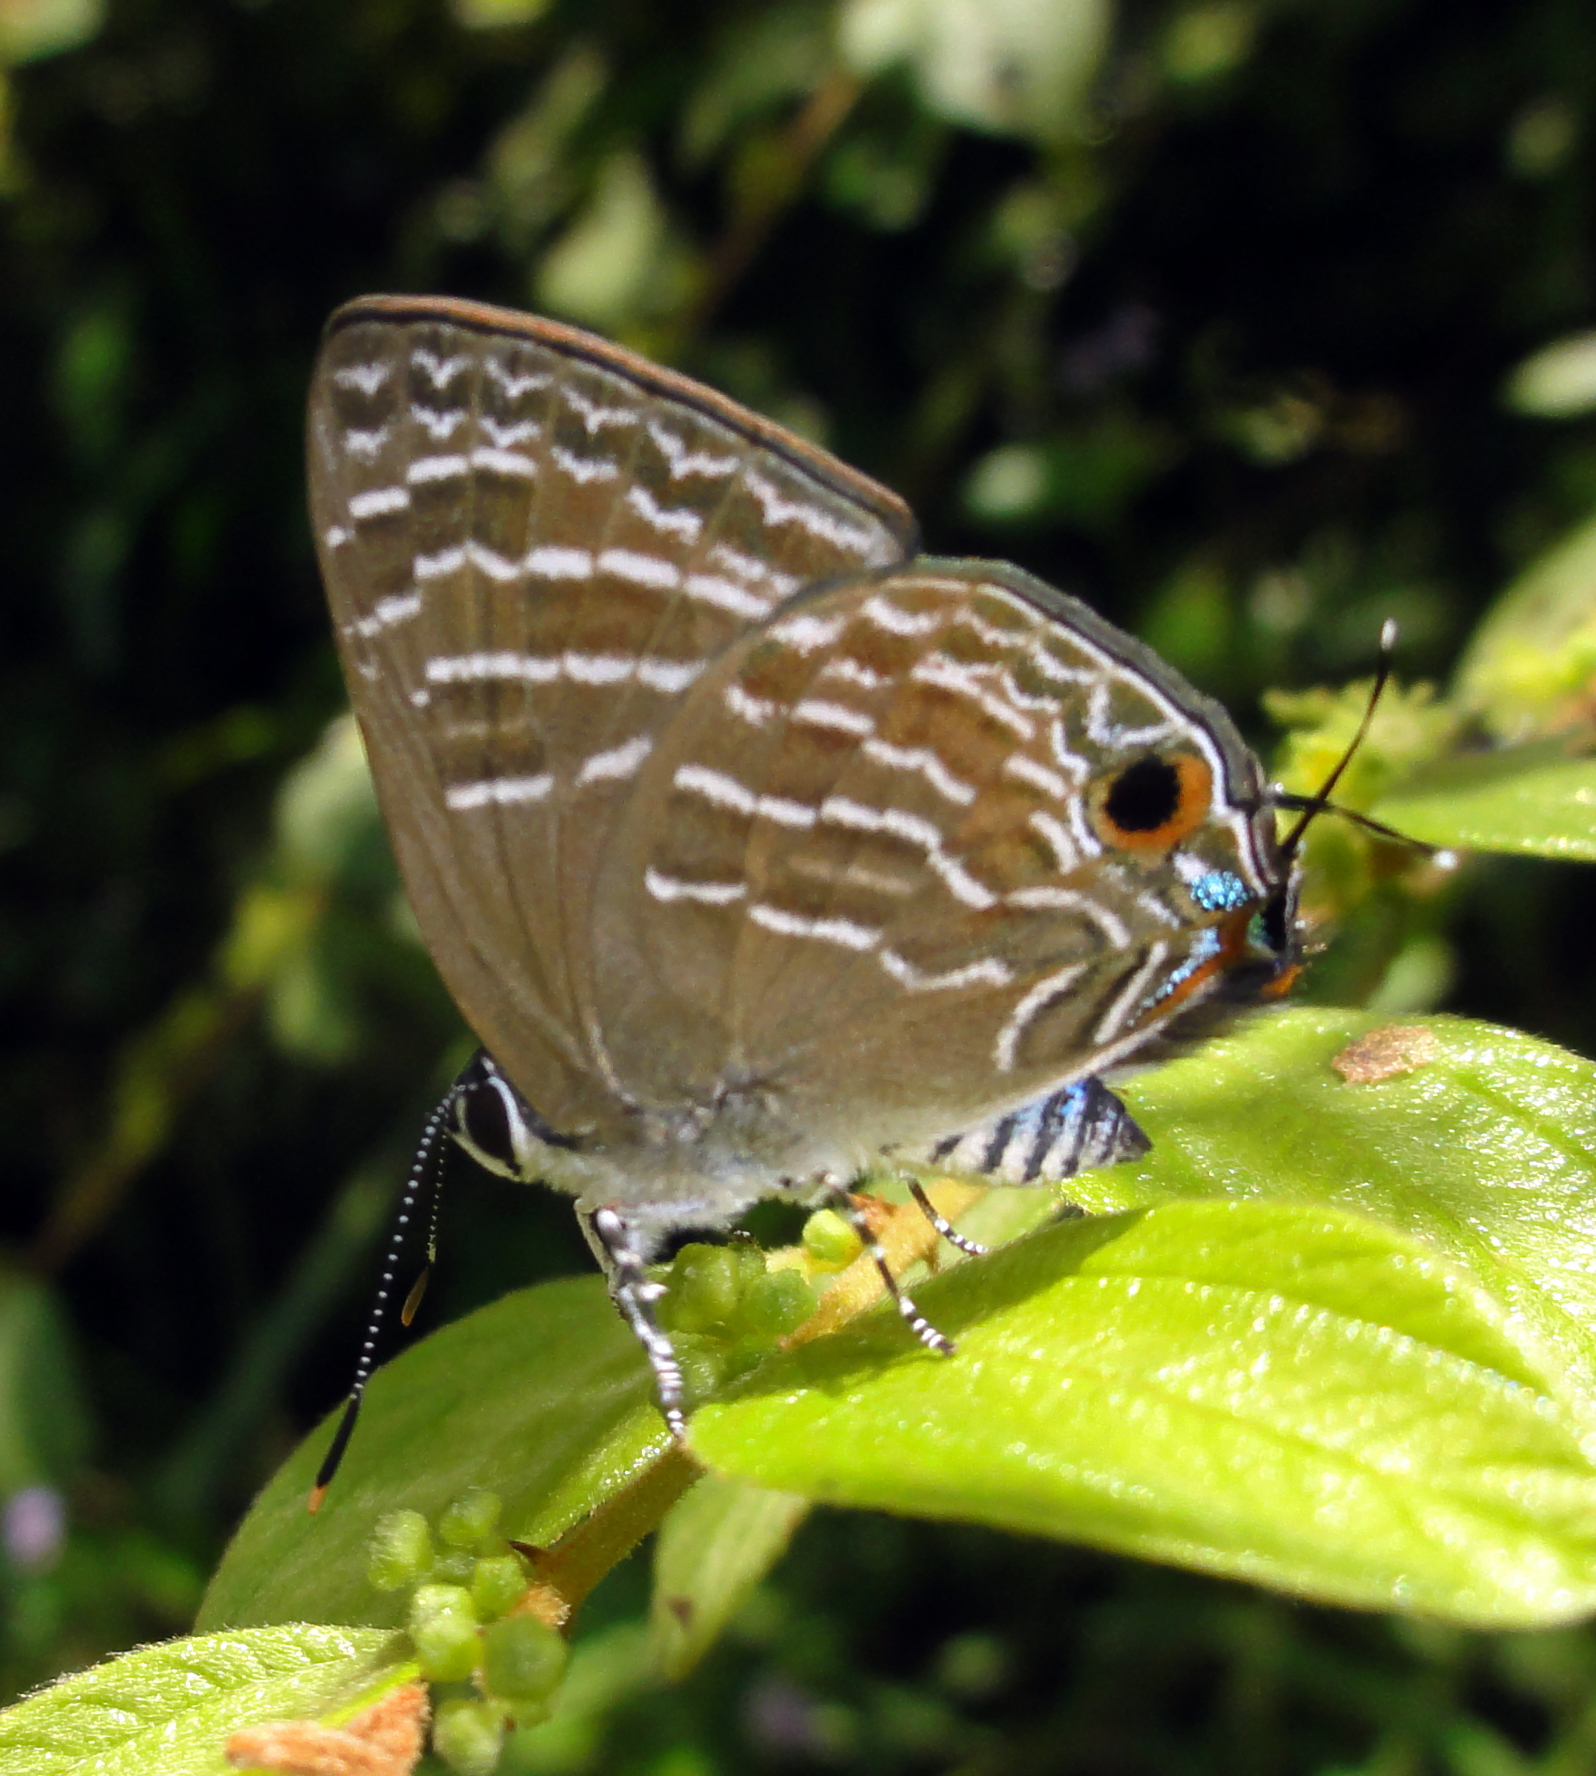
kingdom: Animalia
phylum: Arthropoda
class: Insecta
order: Lepidoptera
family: Lycaenidae
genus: Deudorix
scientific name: Deudorix
